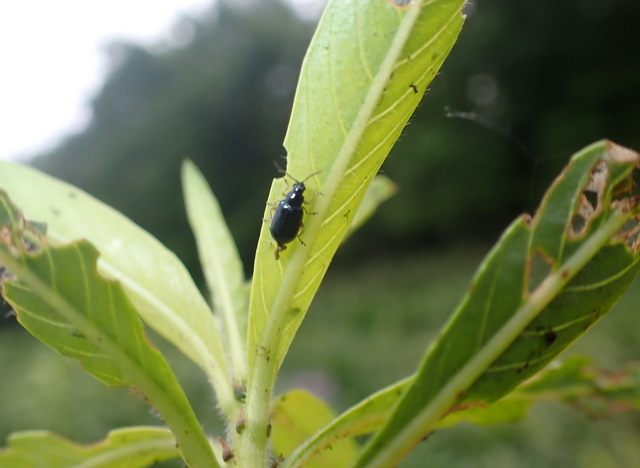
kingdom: Animalia
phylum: Arthropoda
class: Insecta
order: Coleoptera
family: Chrysomelidae
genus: Lysathia
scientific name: Lysathia ludoviciana
